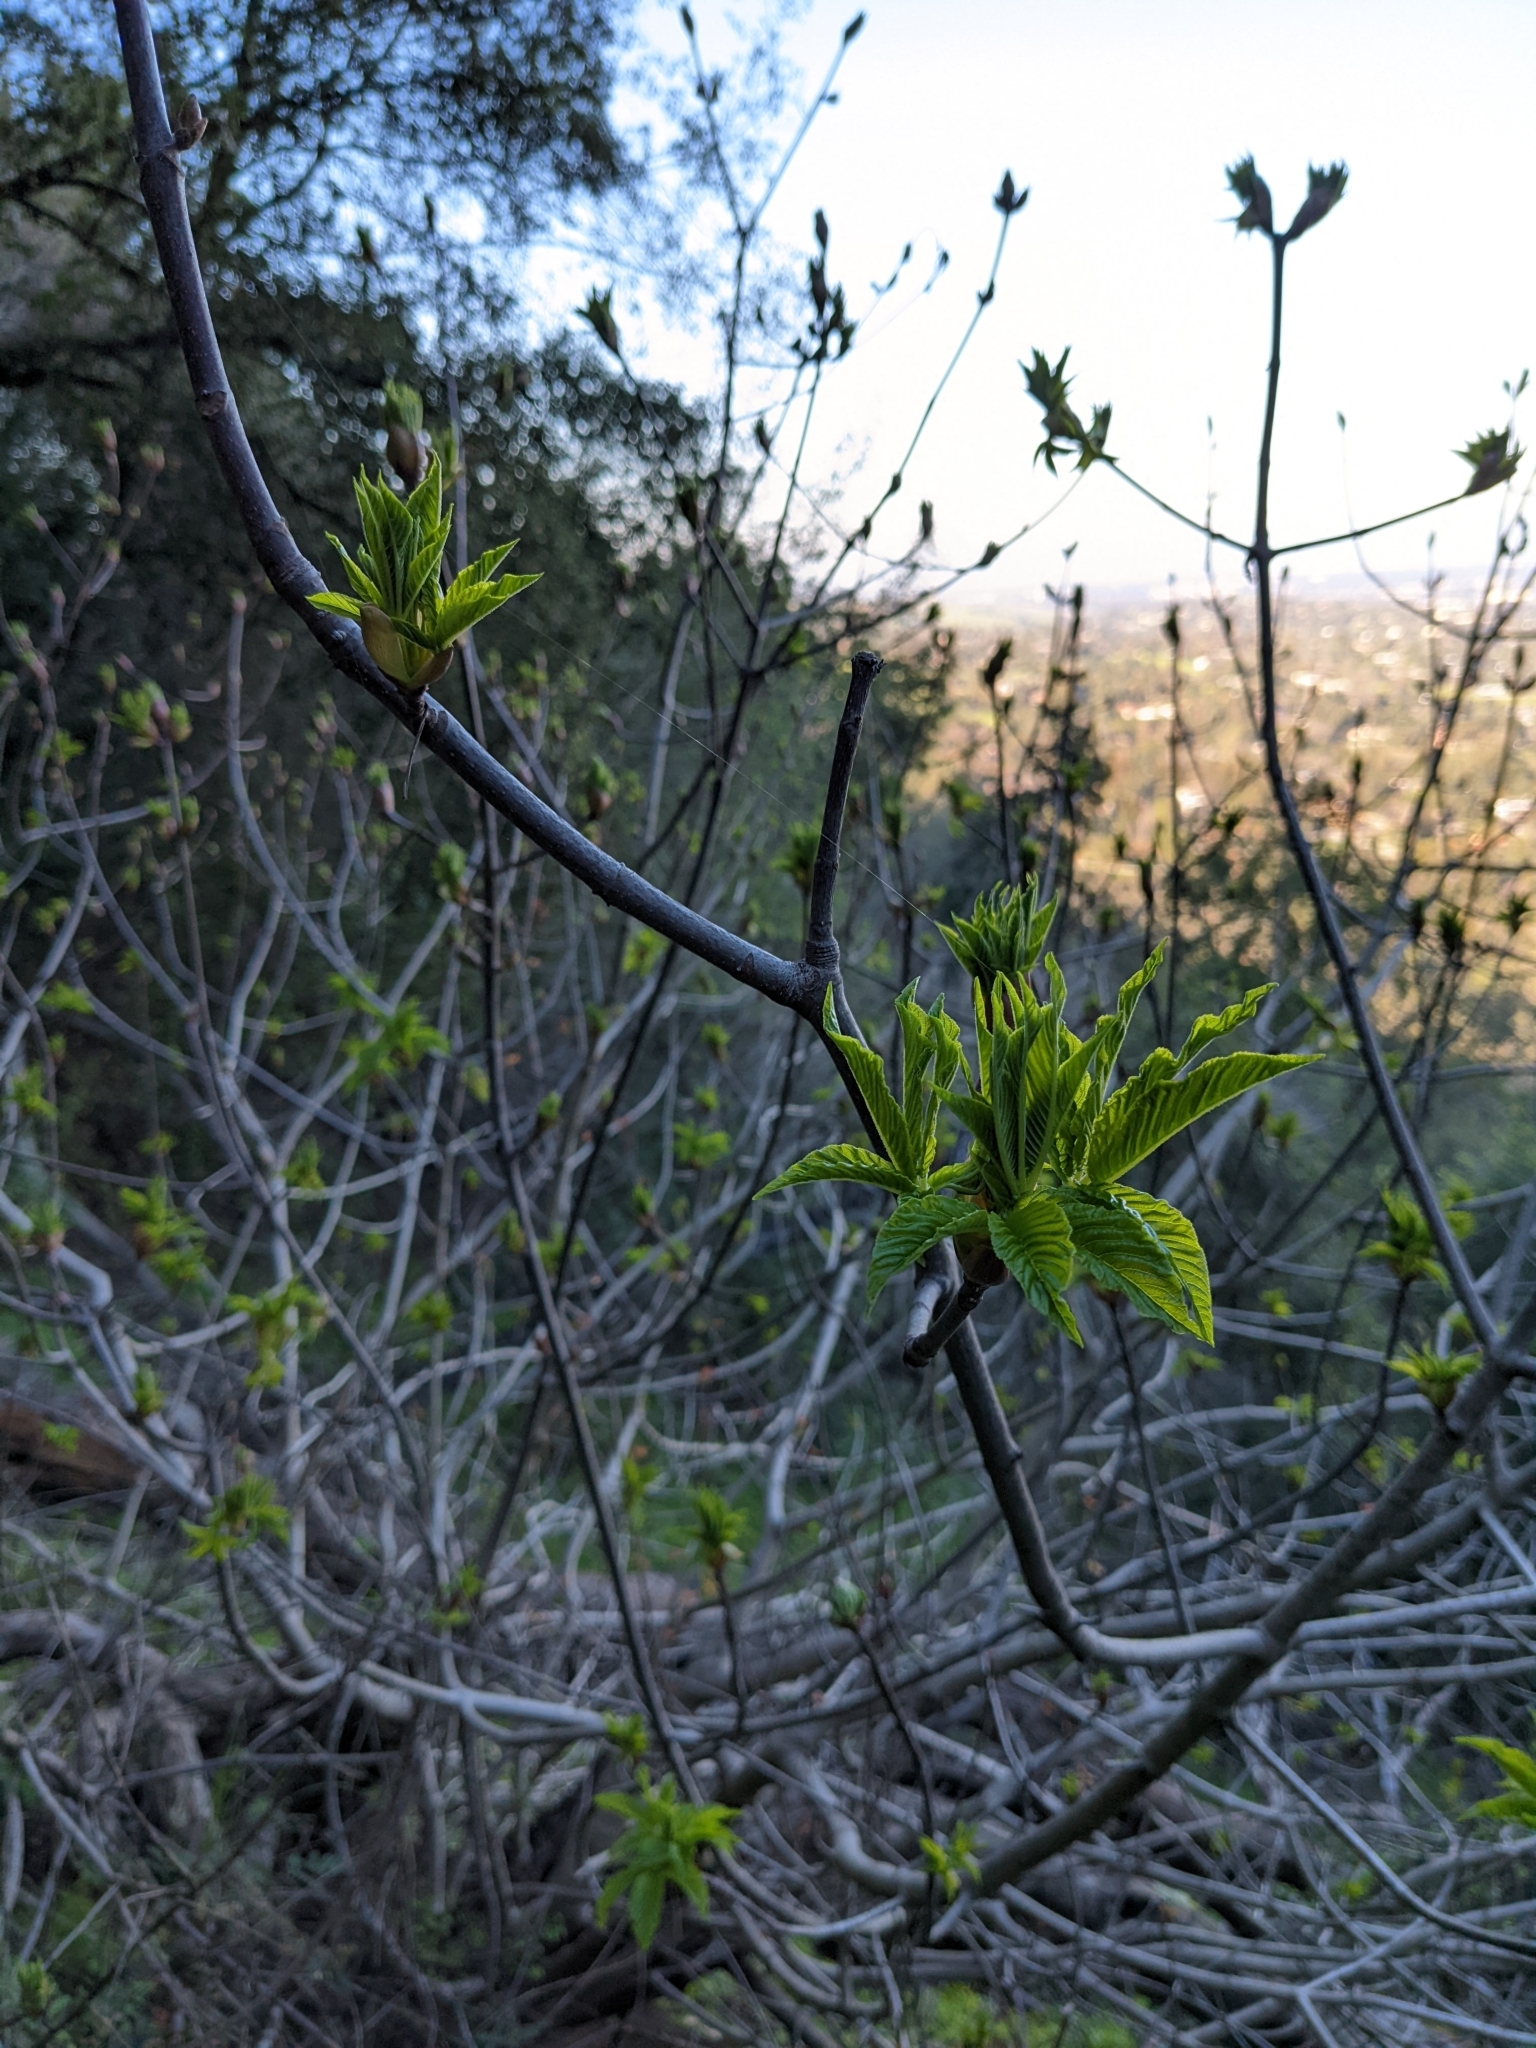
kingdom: Plantae
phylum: Tracheophyta
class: Magnoliopsida
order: Sapindales
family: Sapindaceae
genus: Aesculus
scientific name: Aesculus californica
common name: California buckeye
